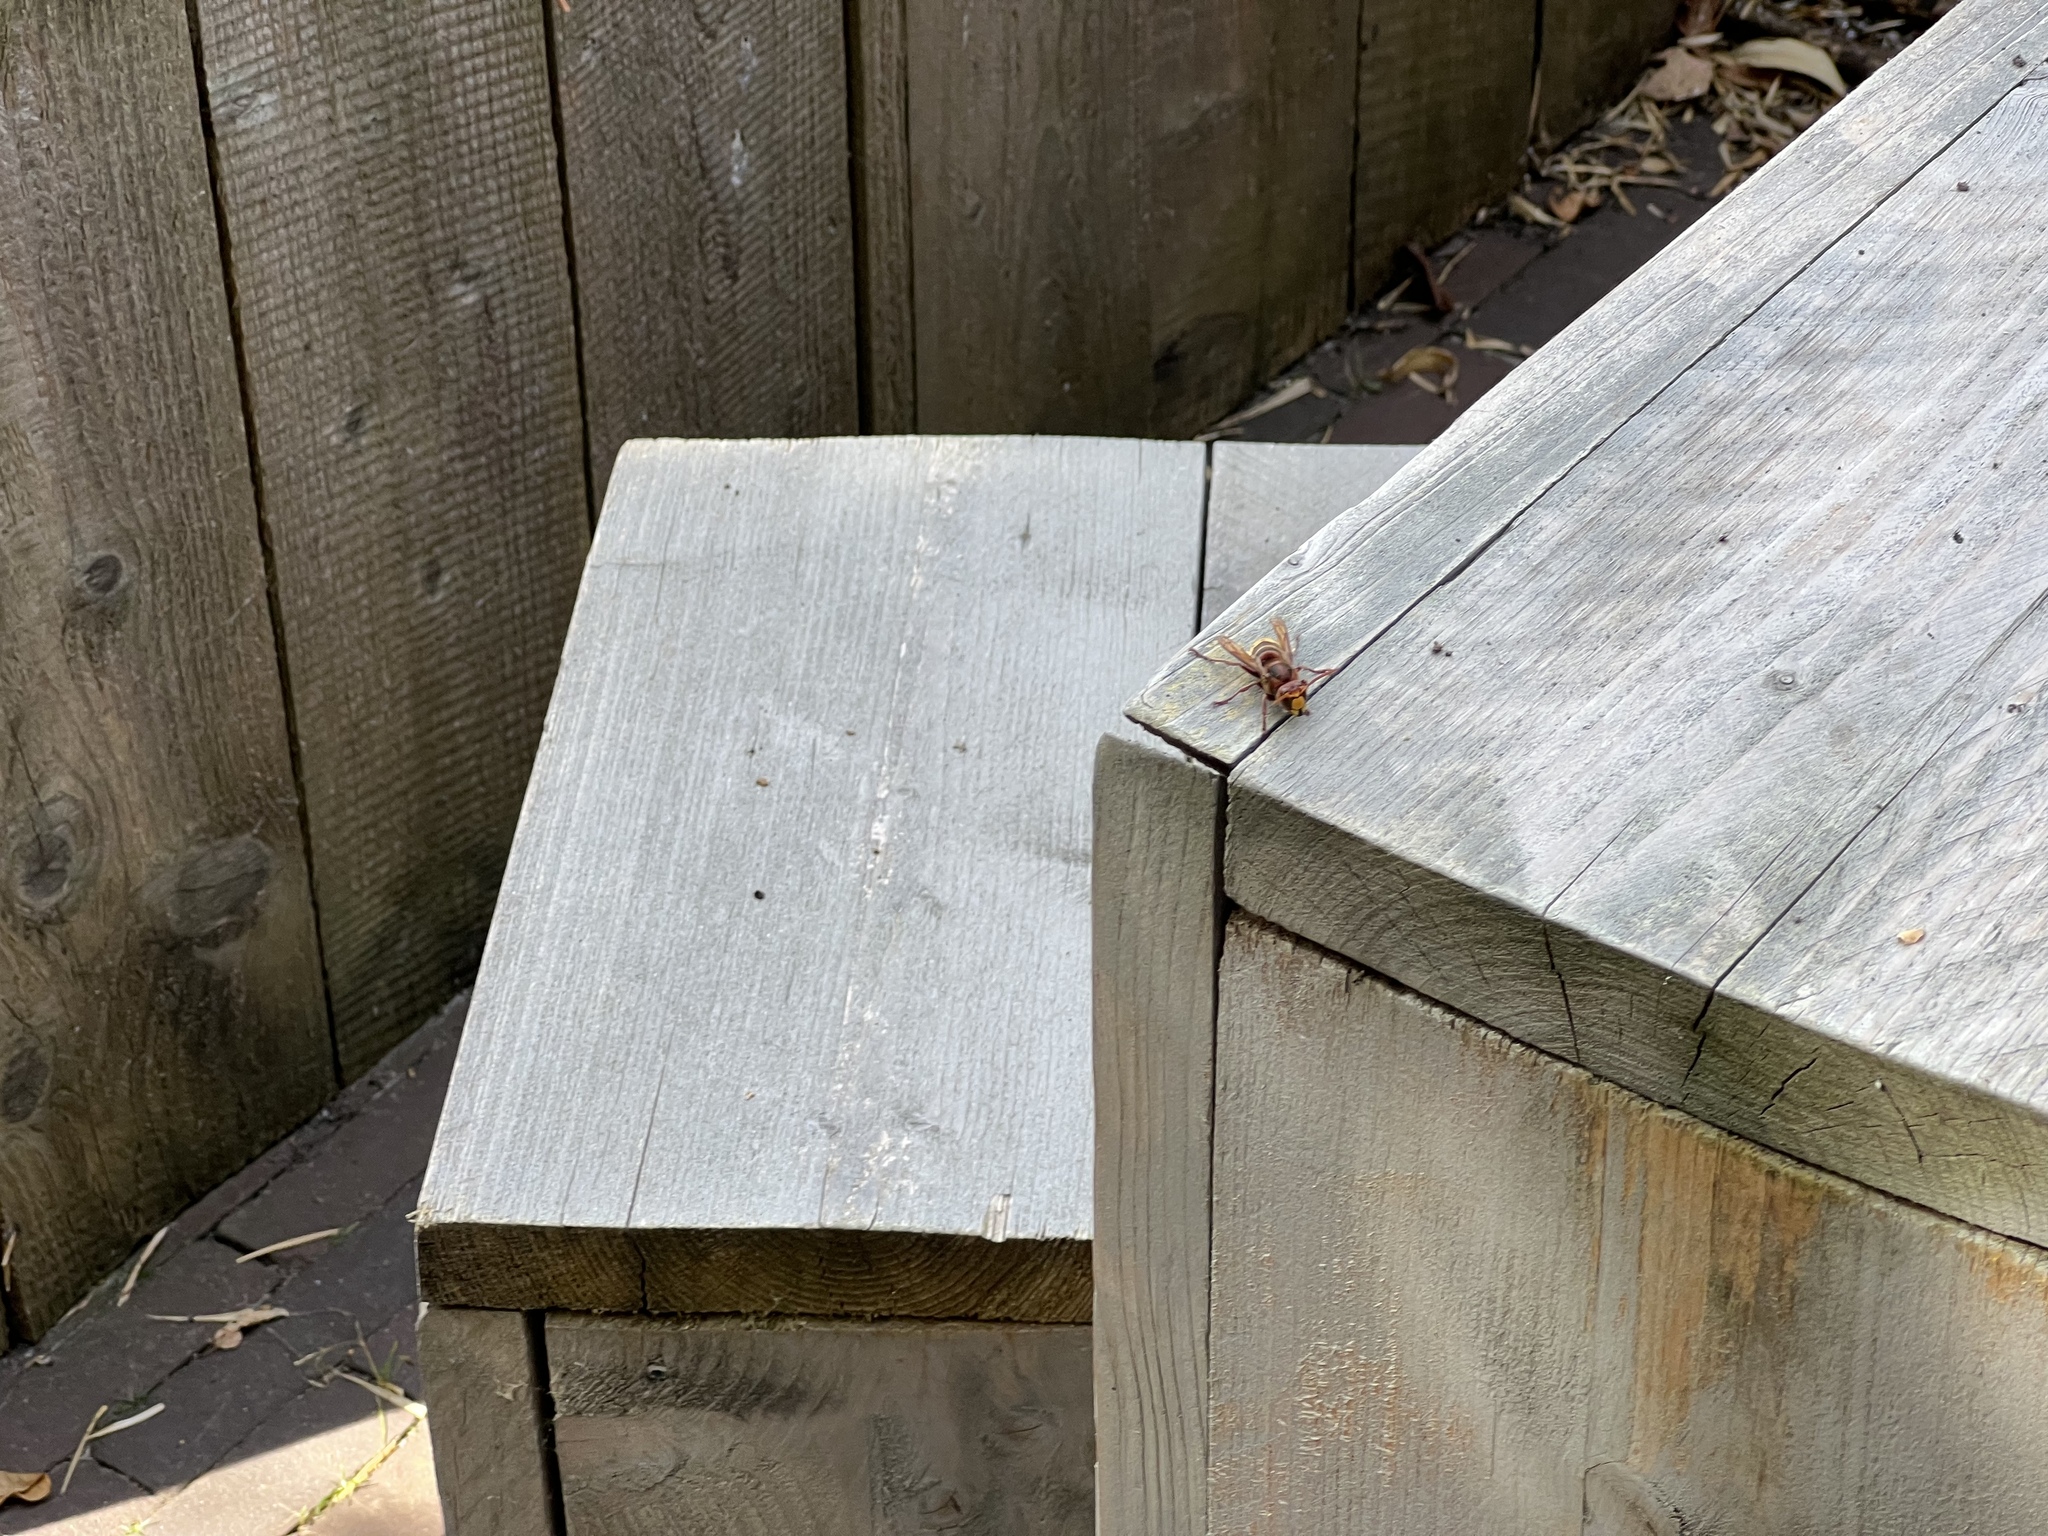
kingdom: Animalia
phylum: Arthropoda
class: Insecta
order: Hymenoptera
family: Vespidae
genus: Vespa
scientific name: Vespa crabro
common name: Hornet
